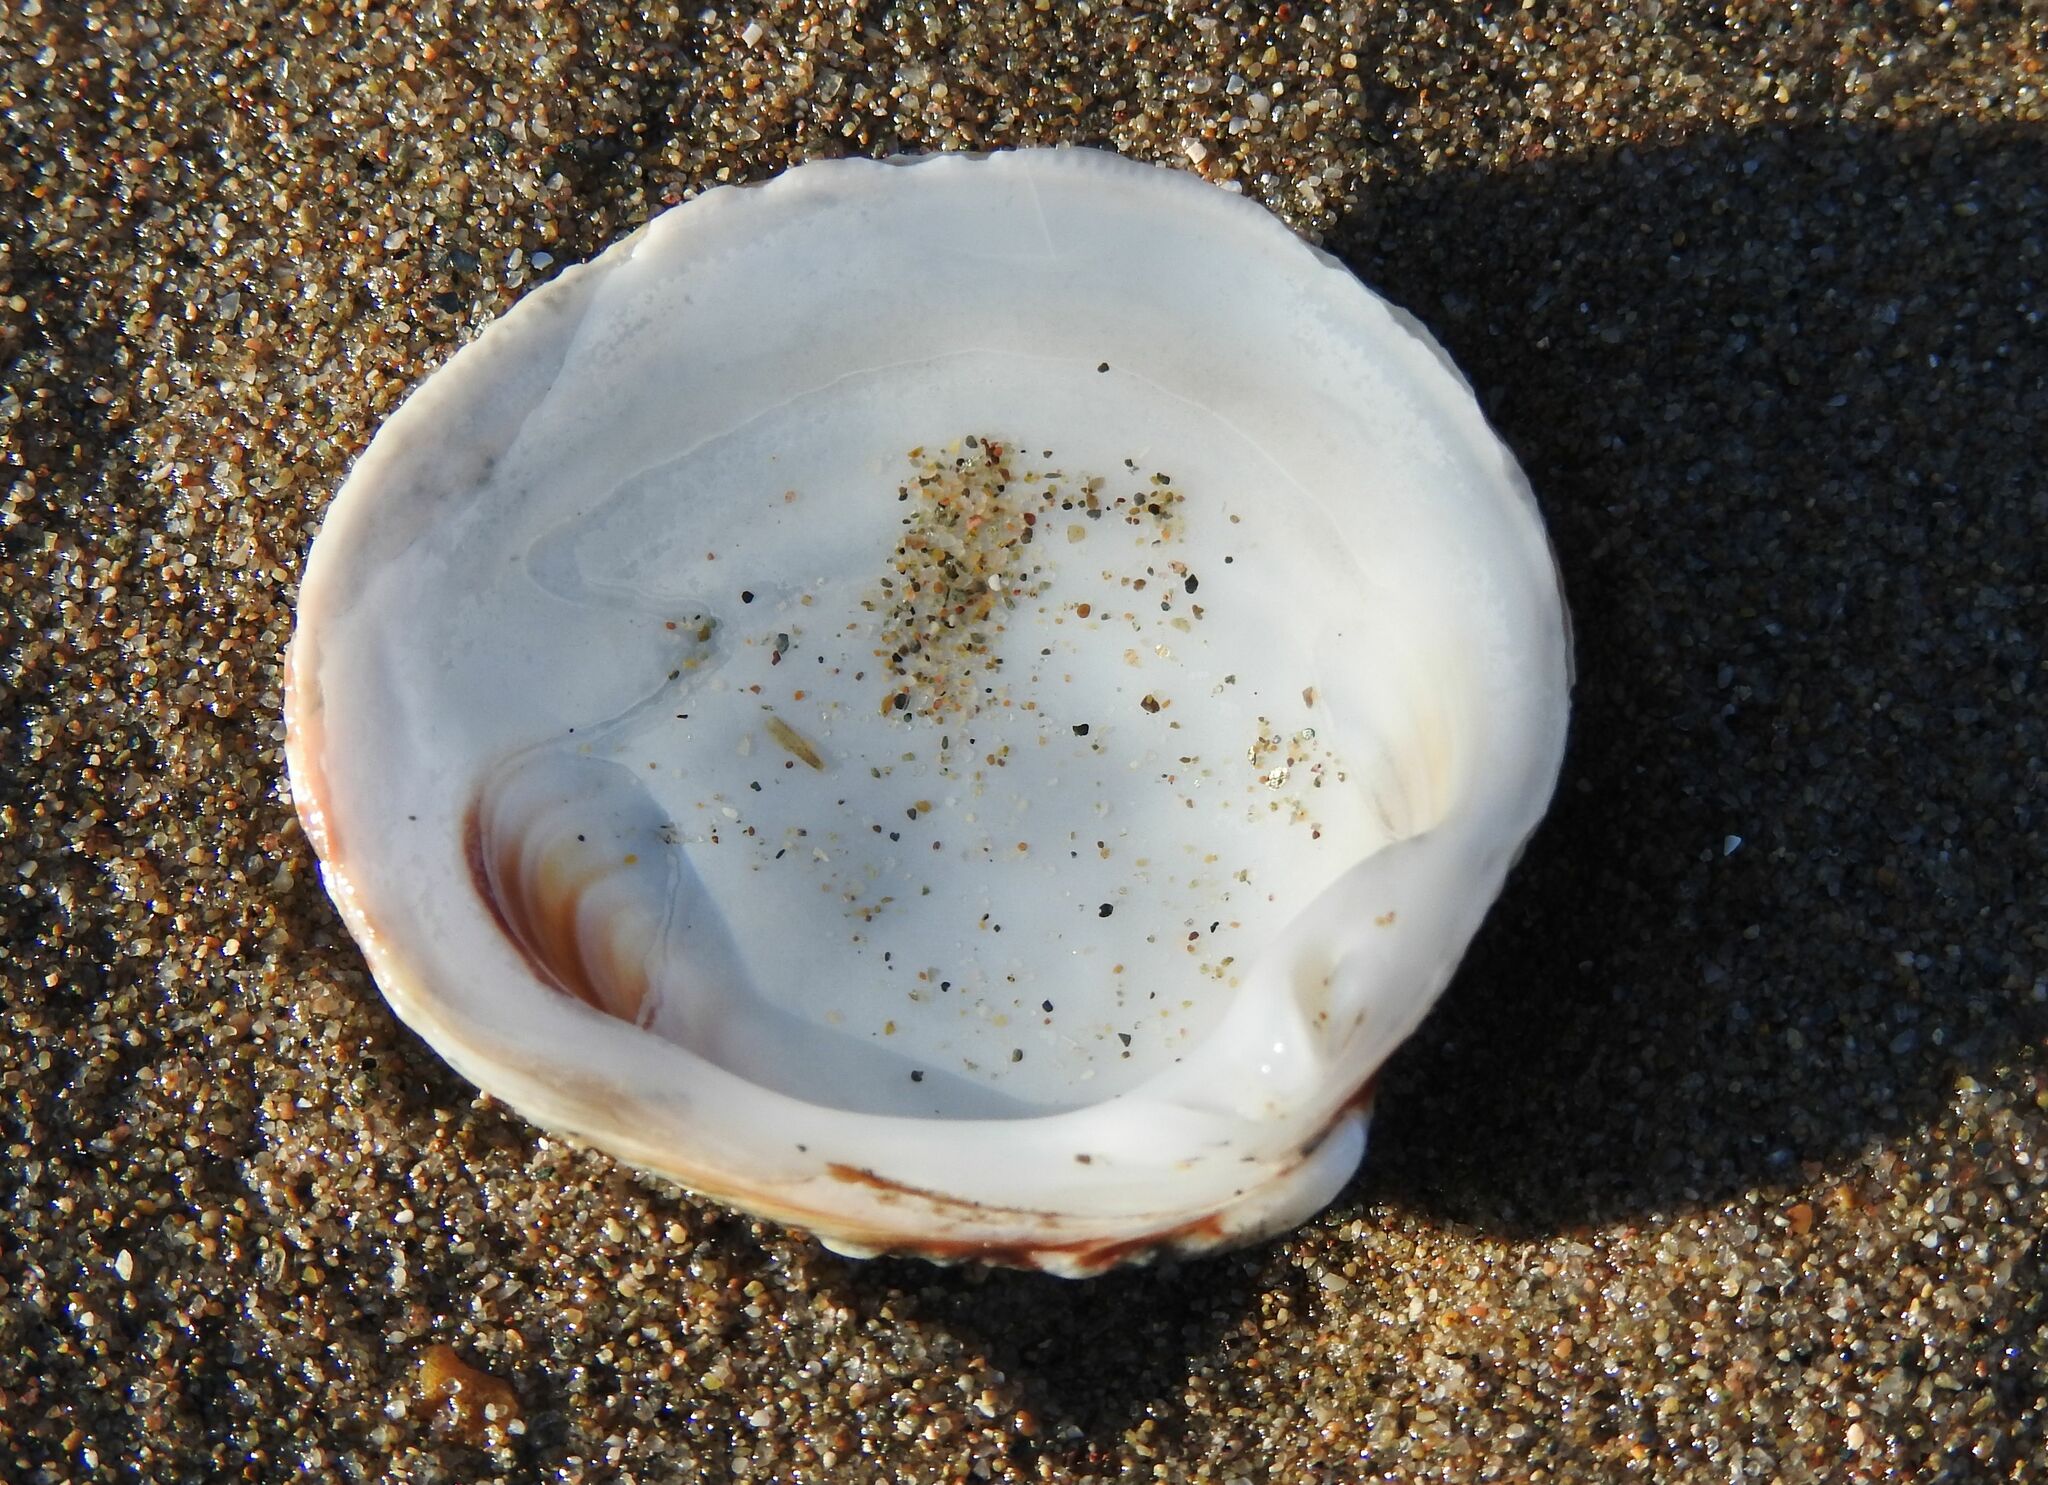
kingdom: Animalia
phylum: Mollusca
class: Bivalvia
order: Venerida
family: Veneridae
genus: Venus
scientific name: Venus verrucosa
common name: Warty venus
